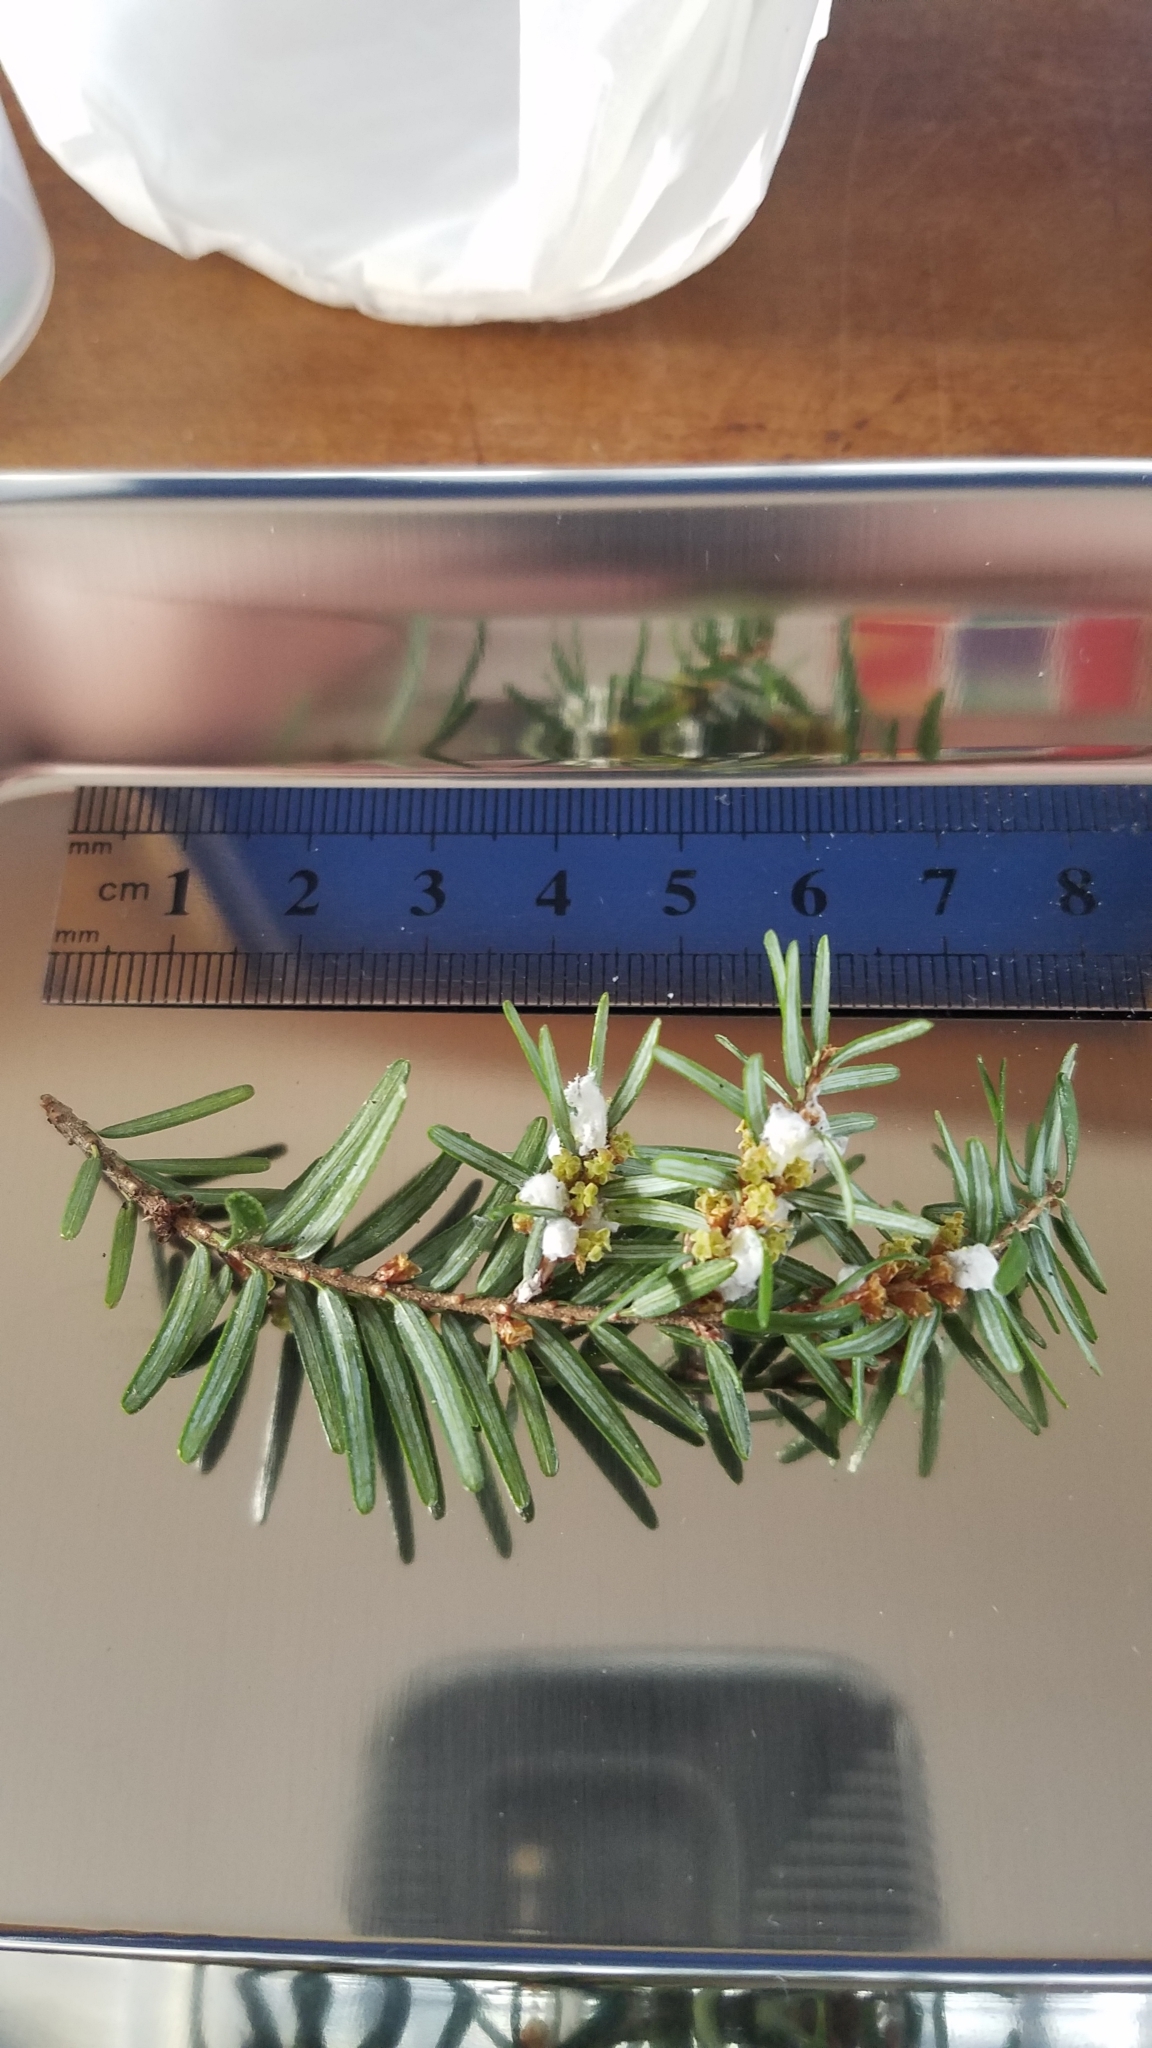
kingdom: Animalia
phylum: Arthropoda
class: Insecta
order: Hemiptera
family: Adelgidae
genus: Adelges
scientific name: Adelges tsugae
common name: Hemlock woolly adelgid
